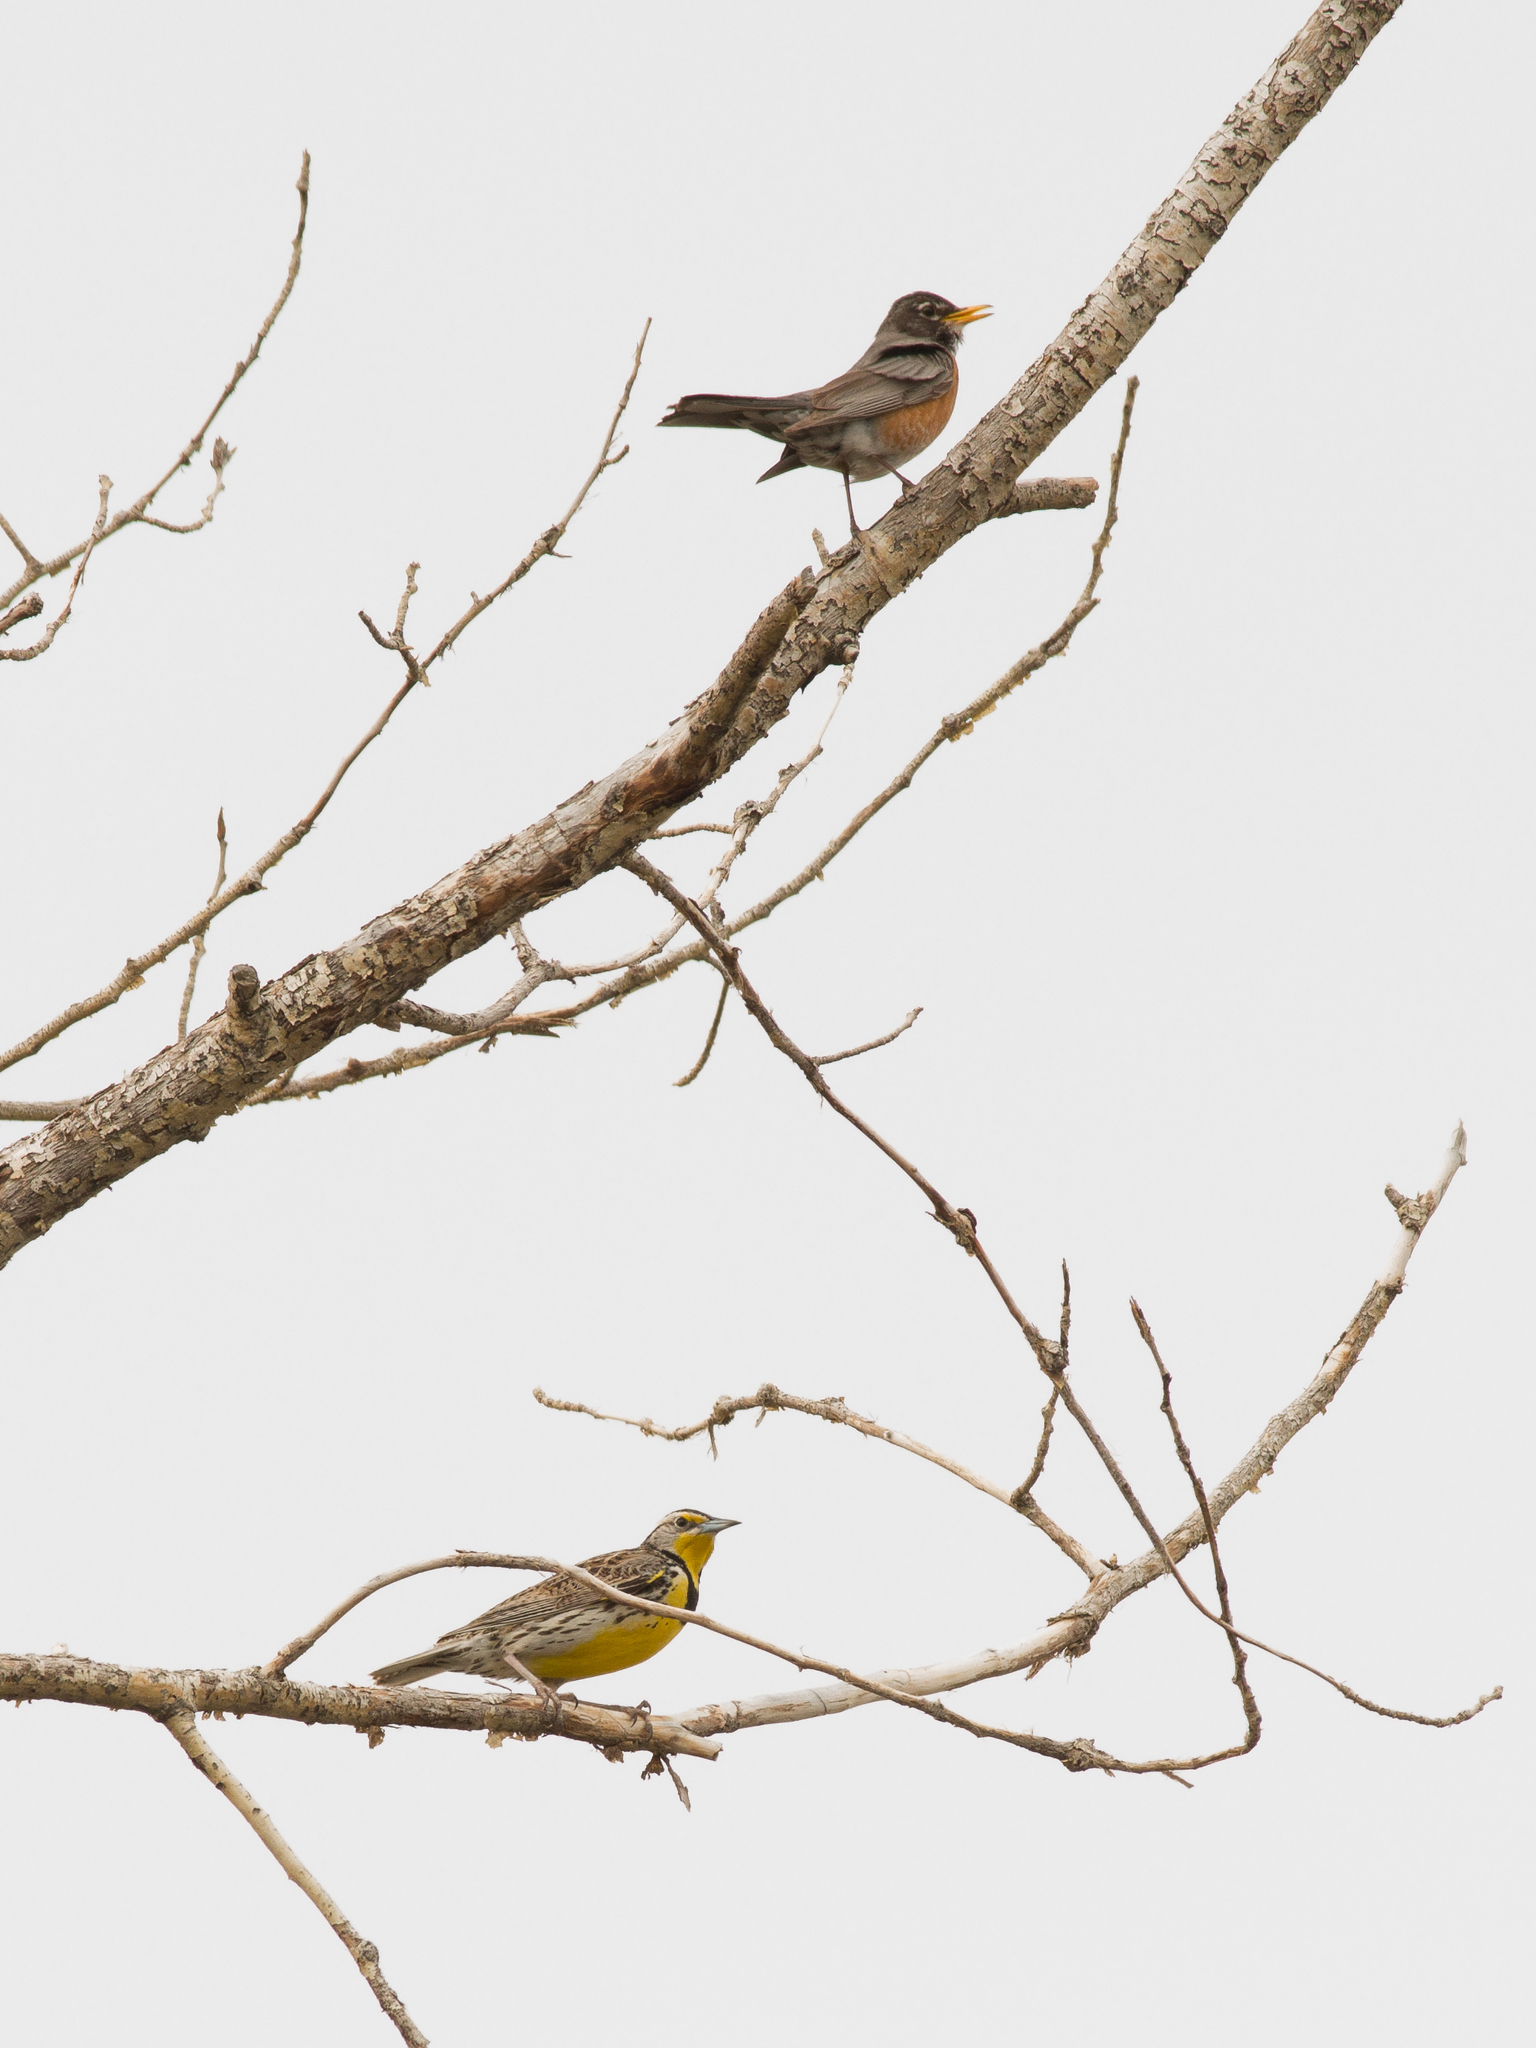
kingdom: Animalia
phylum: Chordata
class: Aves
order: Passeriformes
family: Icteridae
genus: Sturnella
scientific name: Sturnella neglecta
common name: Western meadowlark
